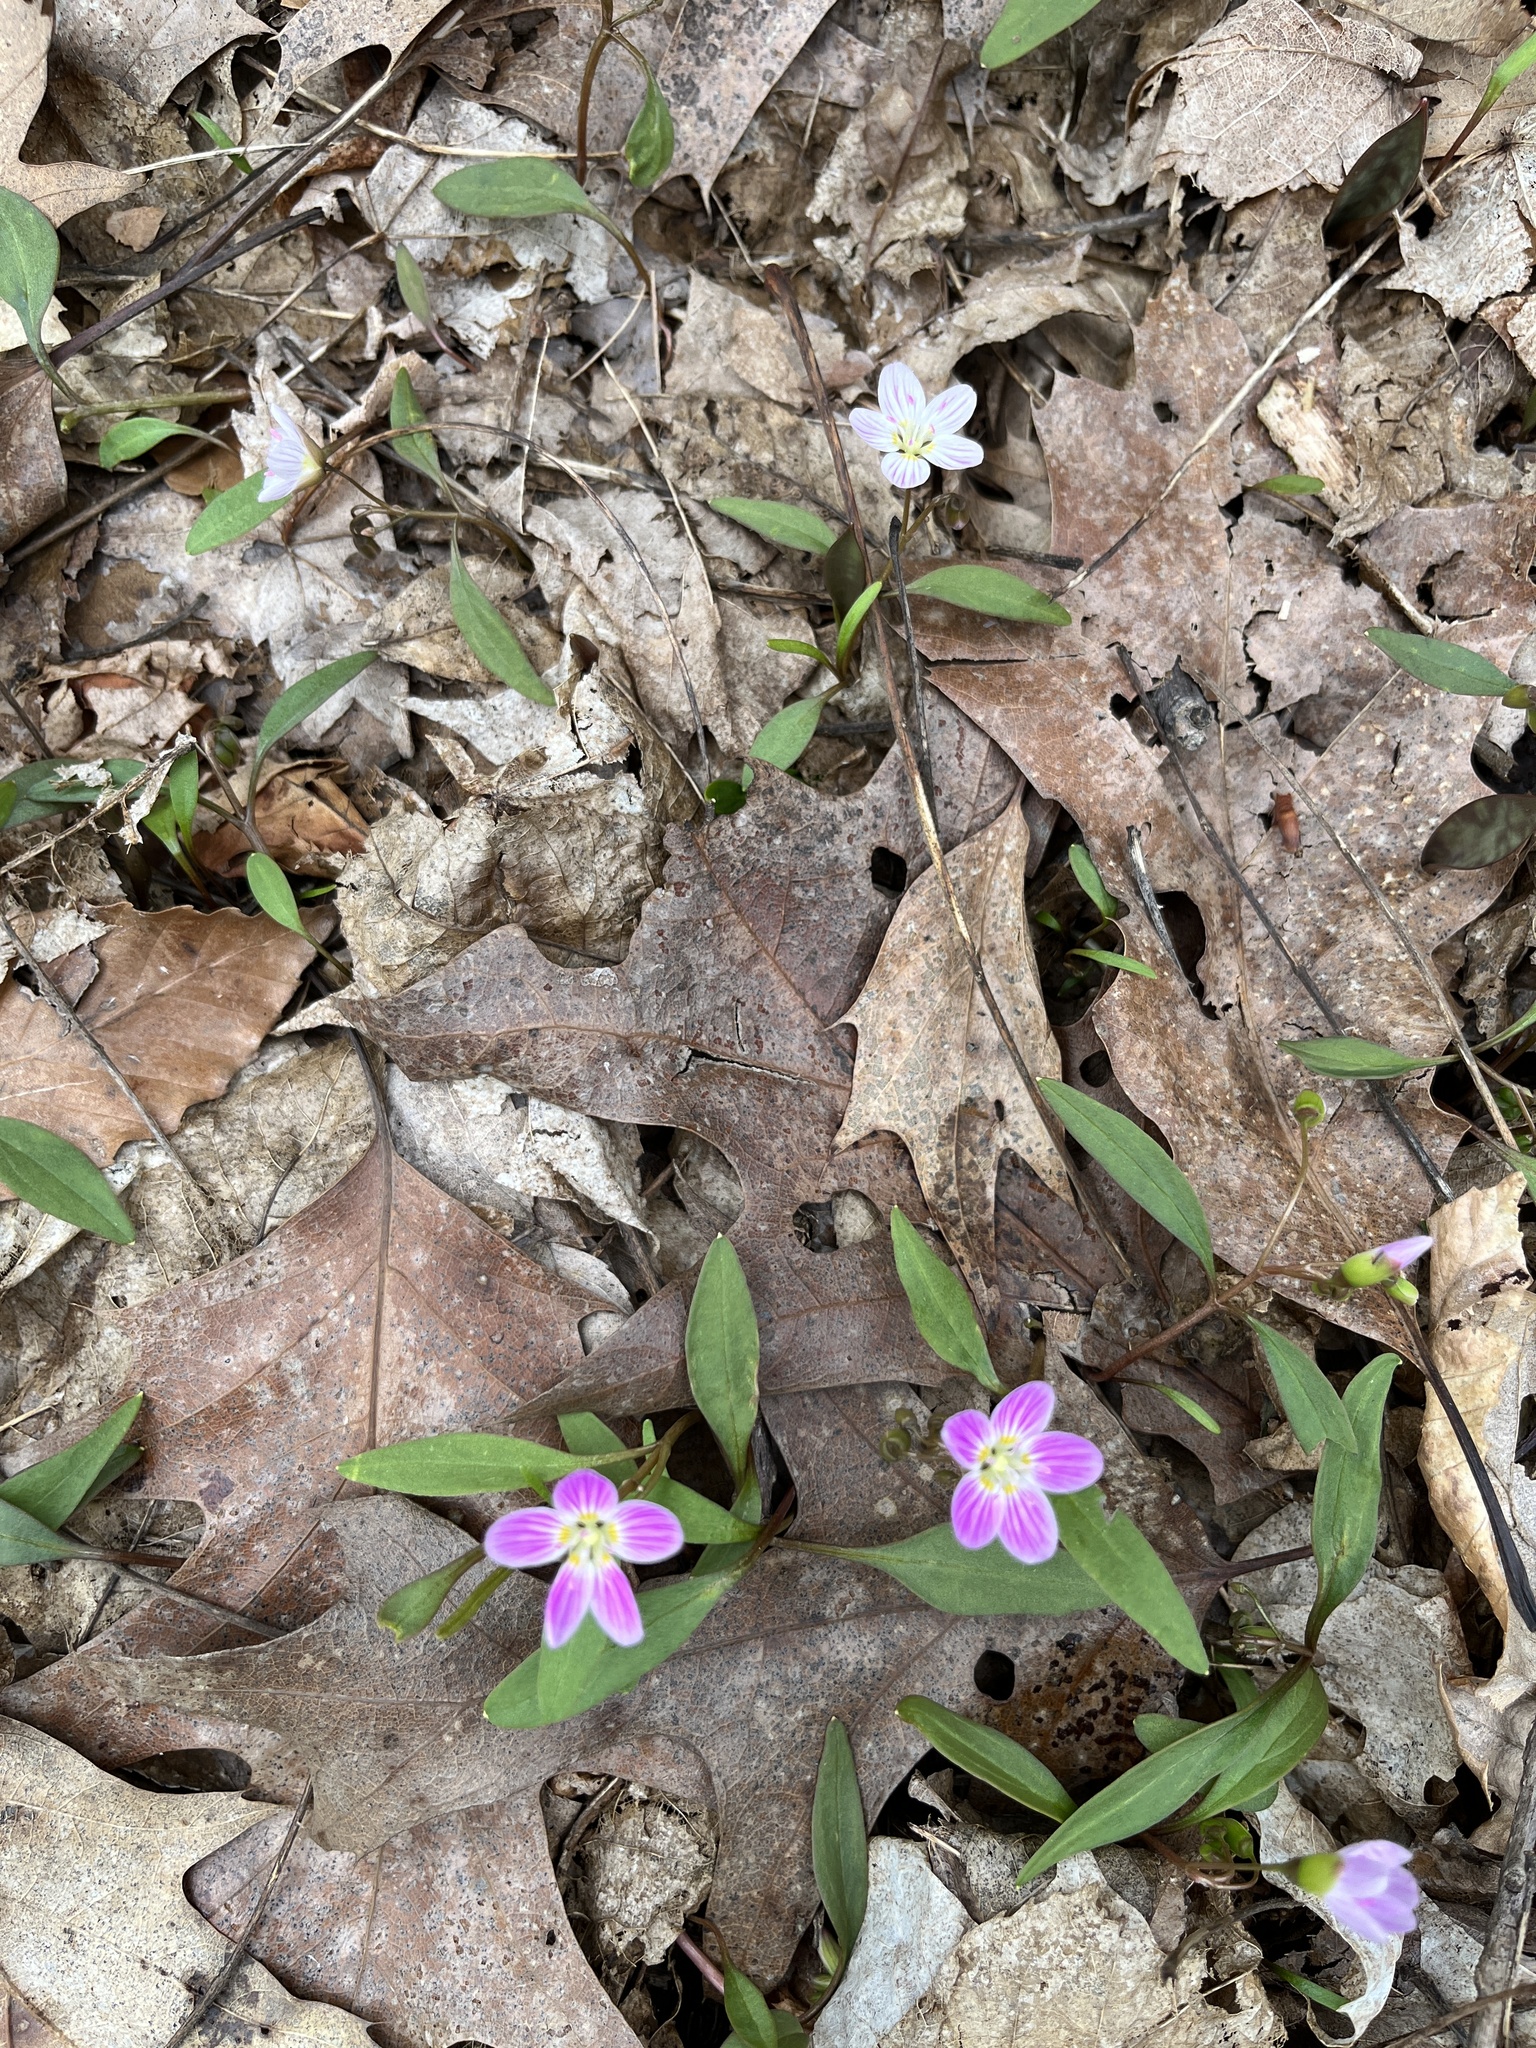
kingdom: Plantae
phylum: Tracheophyta
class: Magnoliopsida
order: Caryophyllales
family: Montiaceae
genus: Claytonia
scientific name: Claytonia caroliniana
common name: Carolina spring beauty
